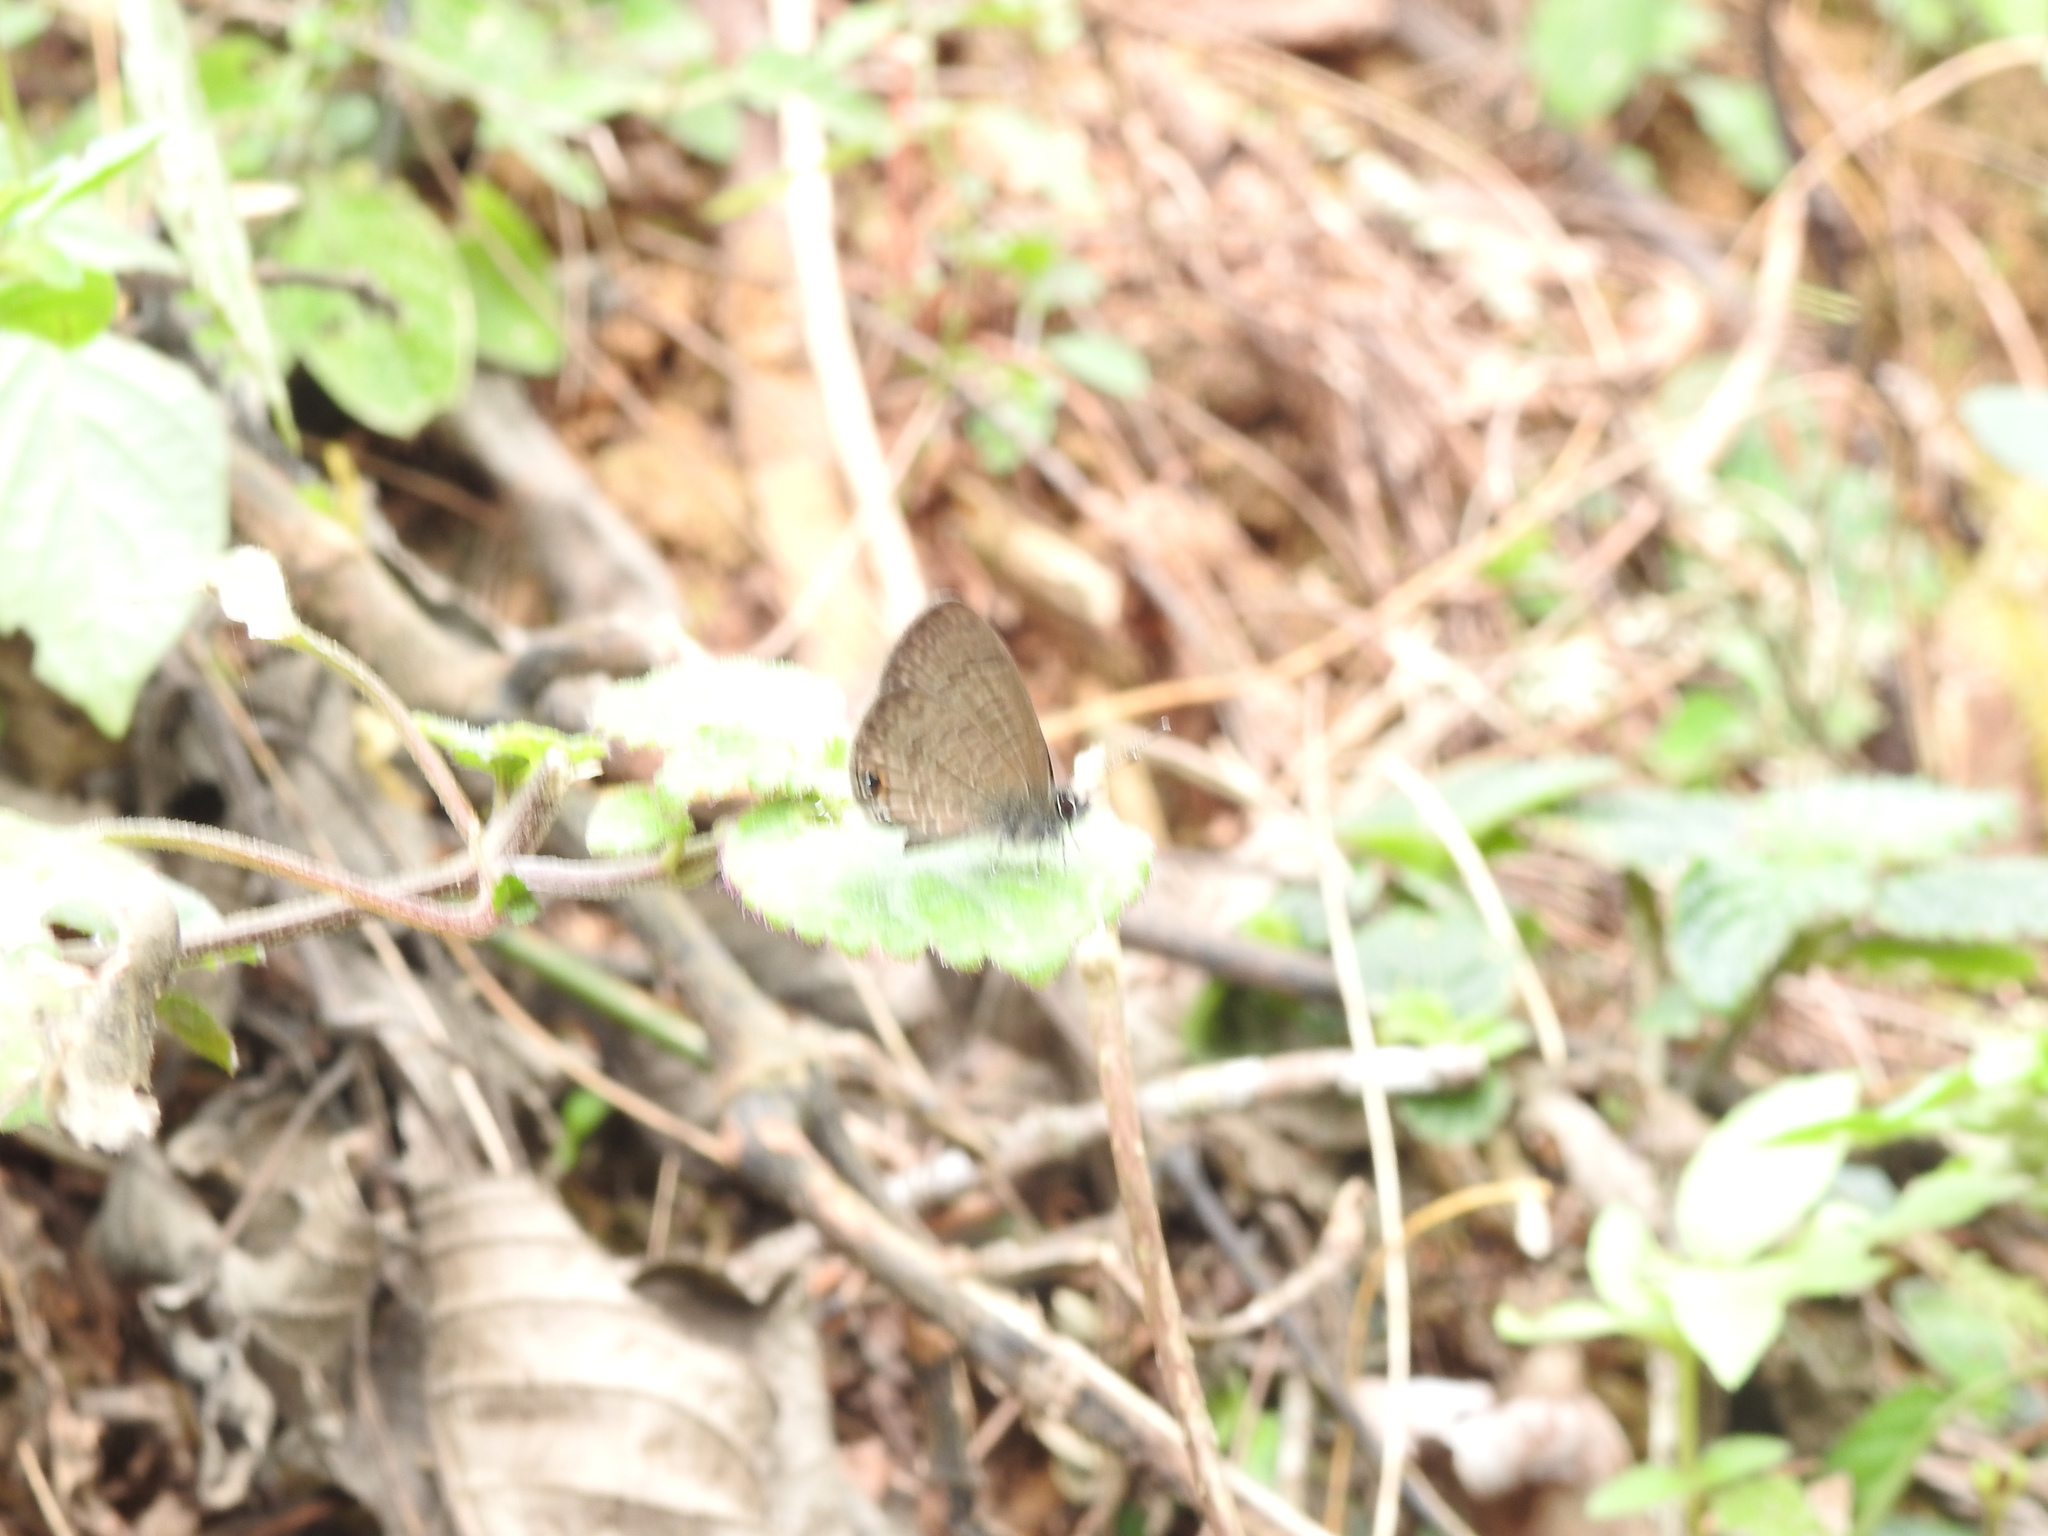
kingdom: Animalia
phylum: Arthropoda
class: Insecta
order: Lepidoptera
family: Lycaenidae
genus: Prosotas
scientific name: Prosotas nora
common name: Common line blue
